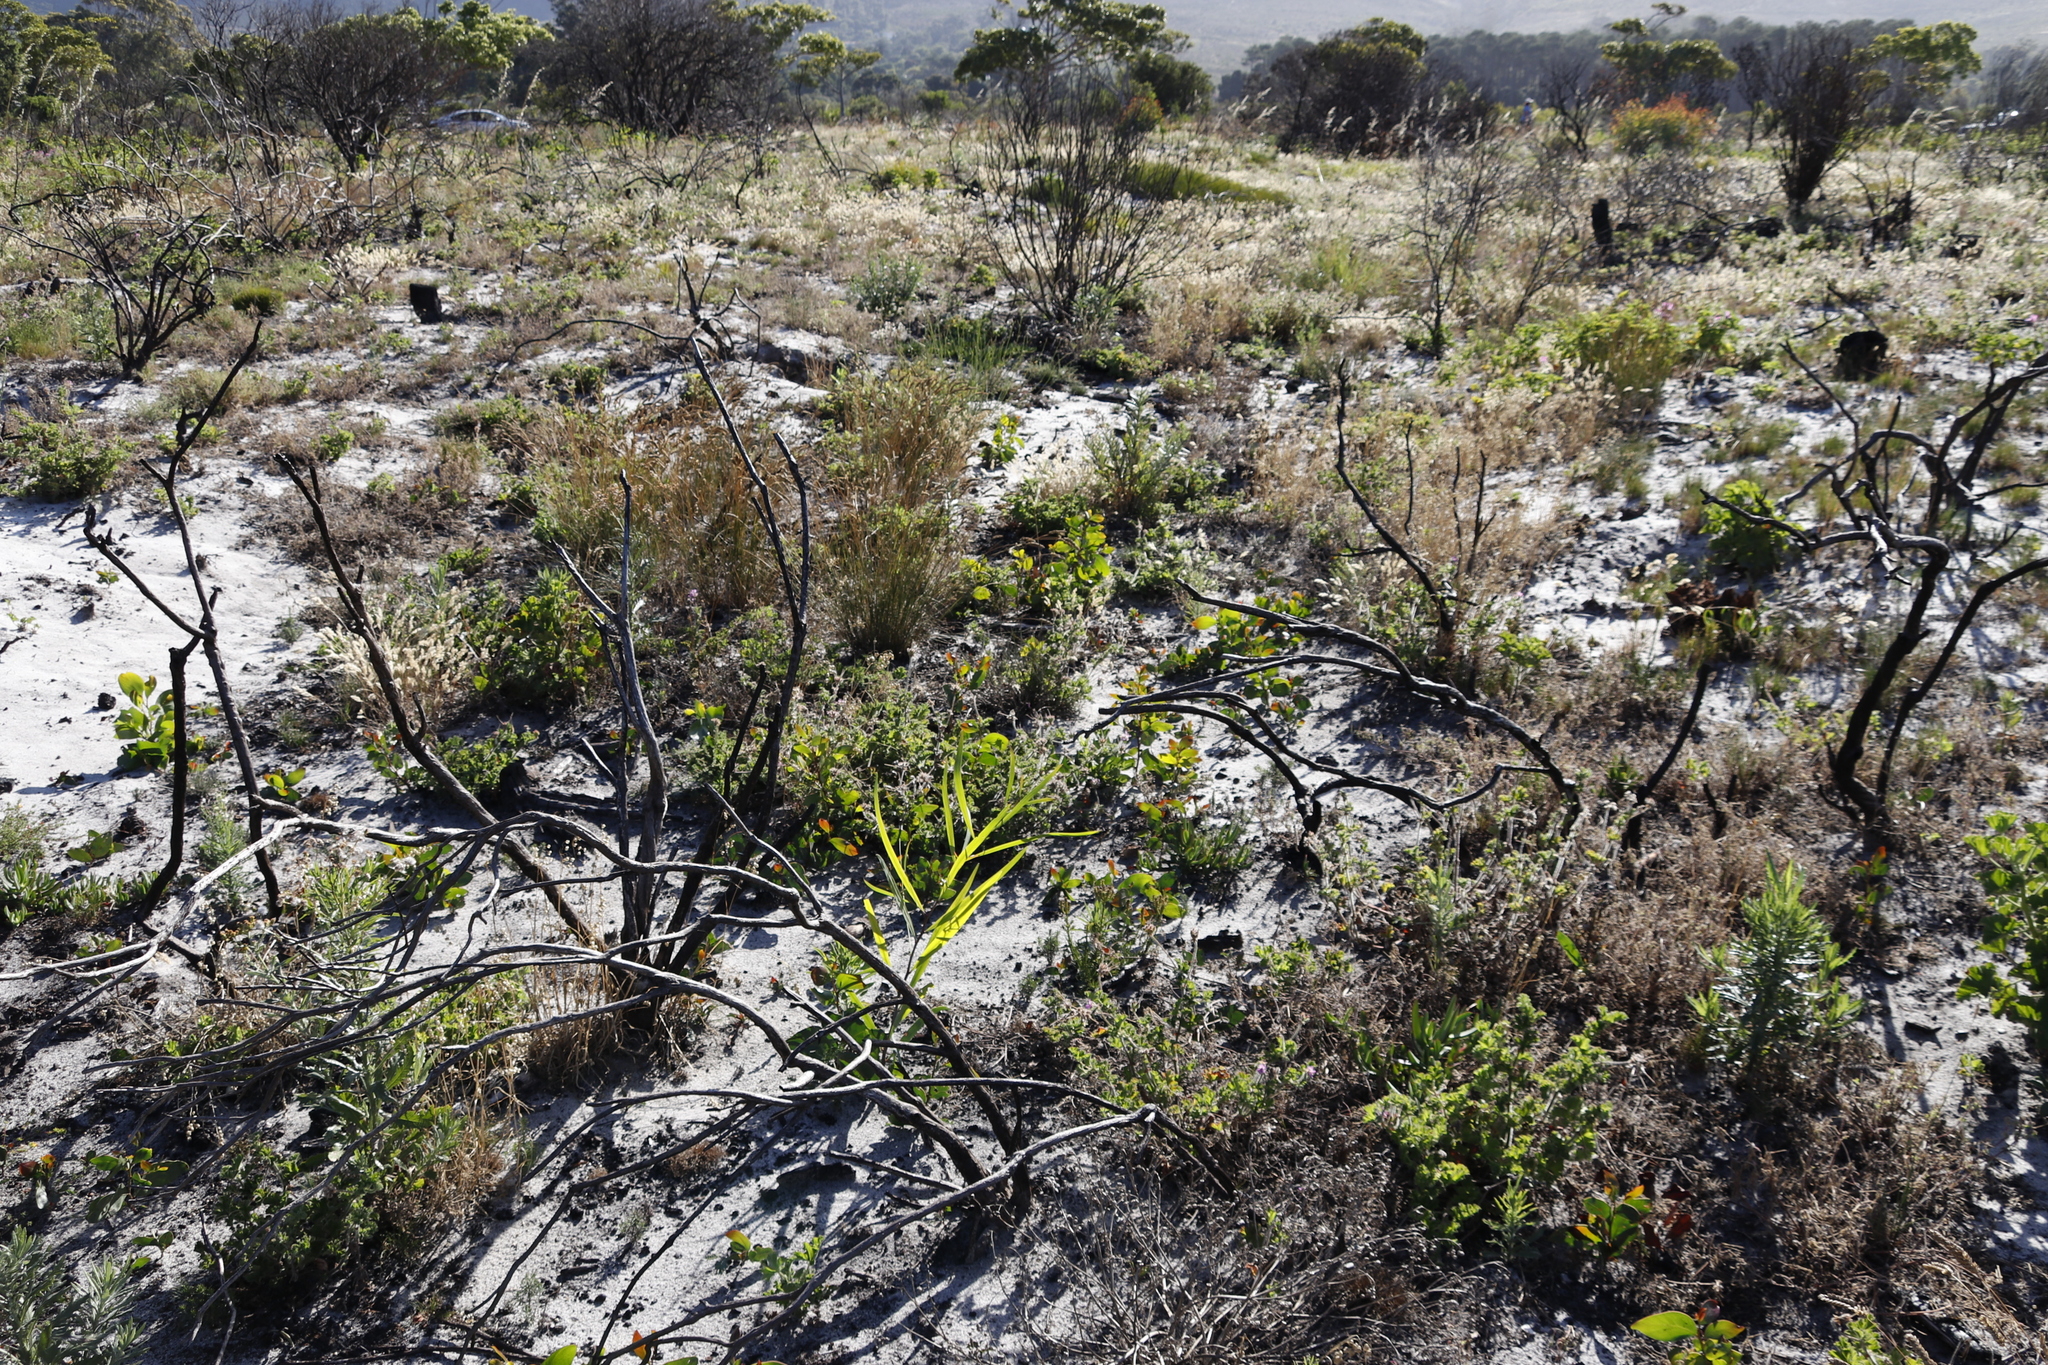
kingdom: Plantae
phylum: Tracheophyta
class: Magnoliopsida
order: Fabales
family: Fabaceae
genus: Acacia
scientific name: Acacia saligna
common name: Orange wattle
